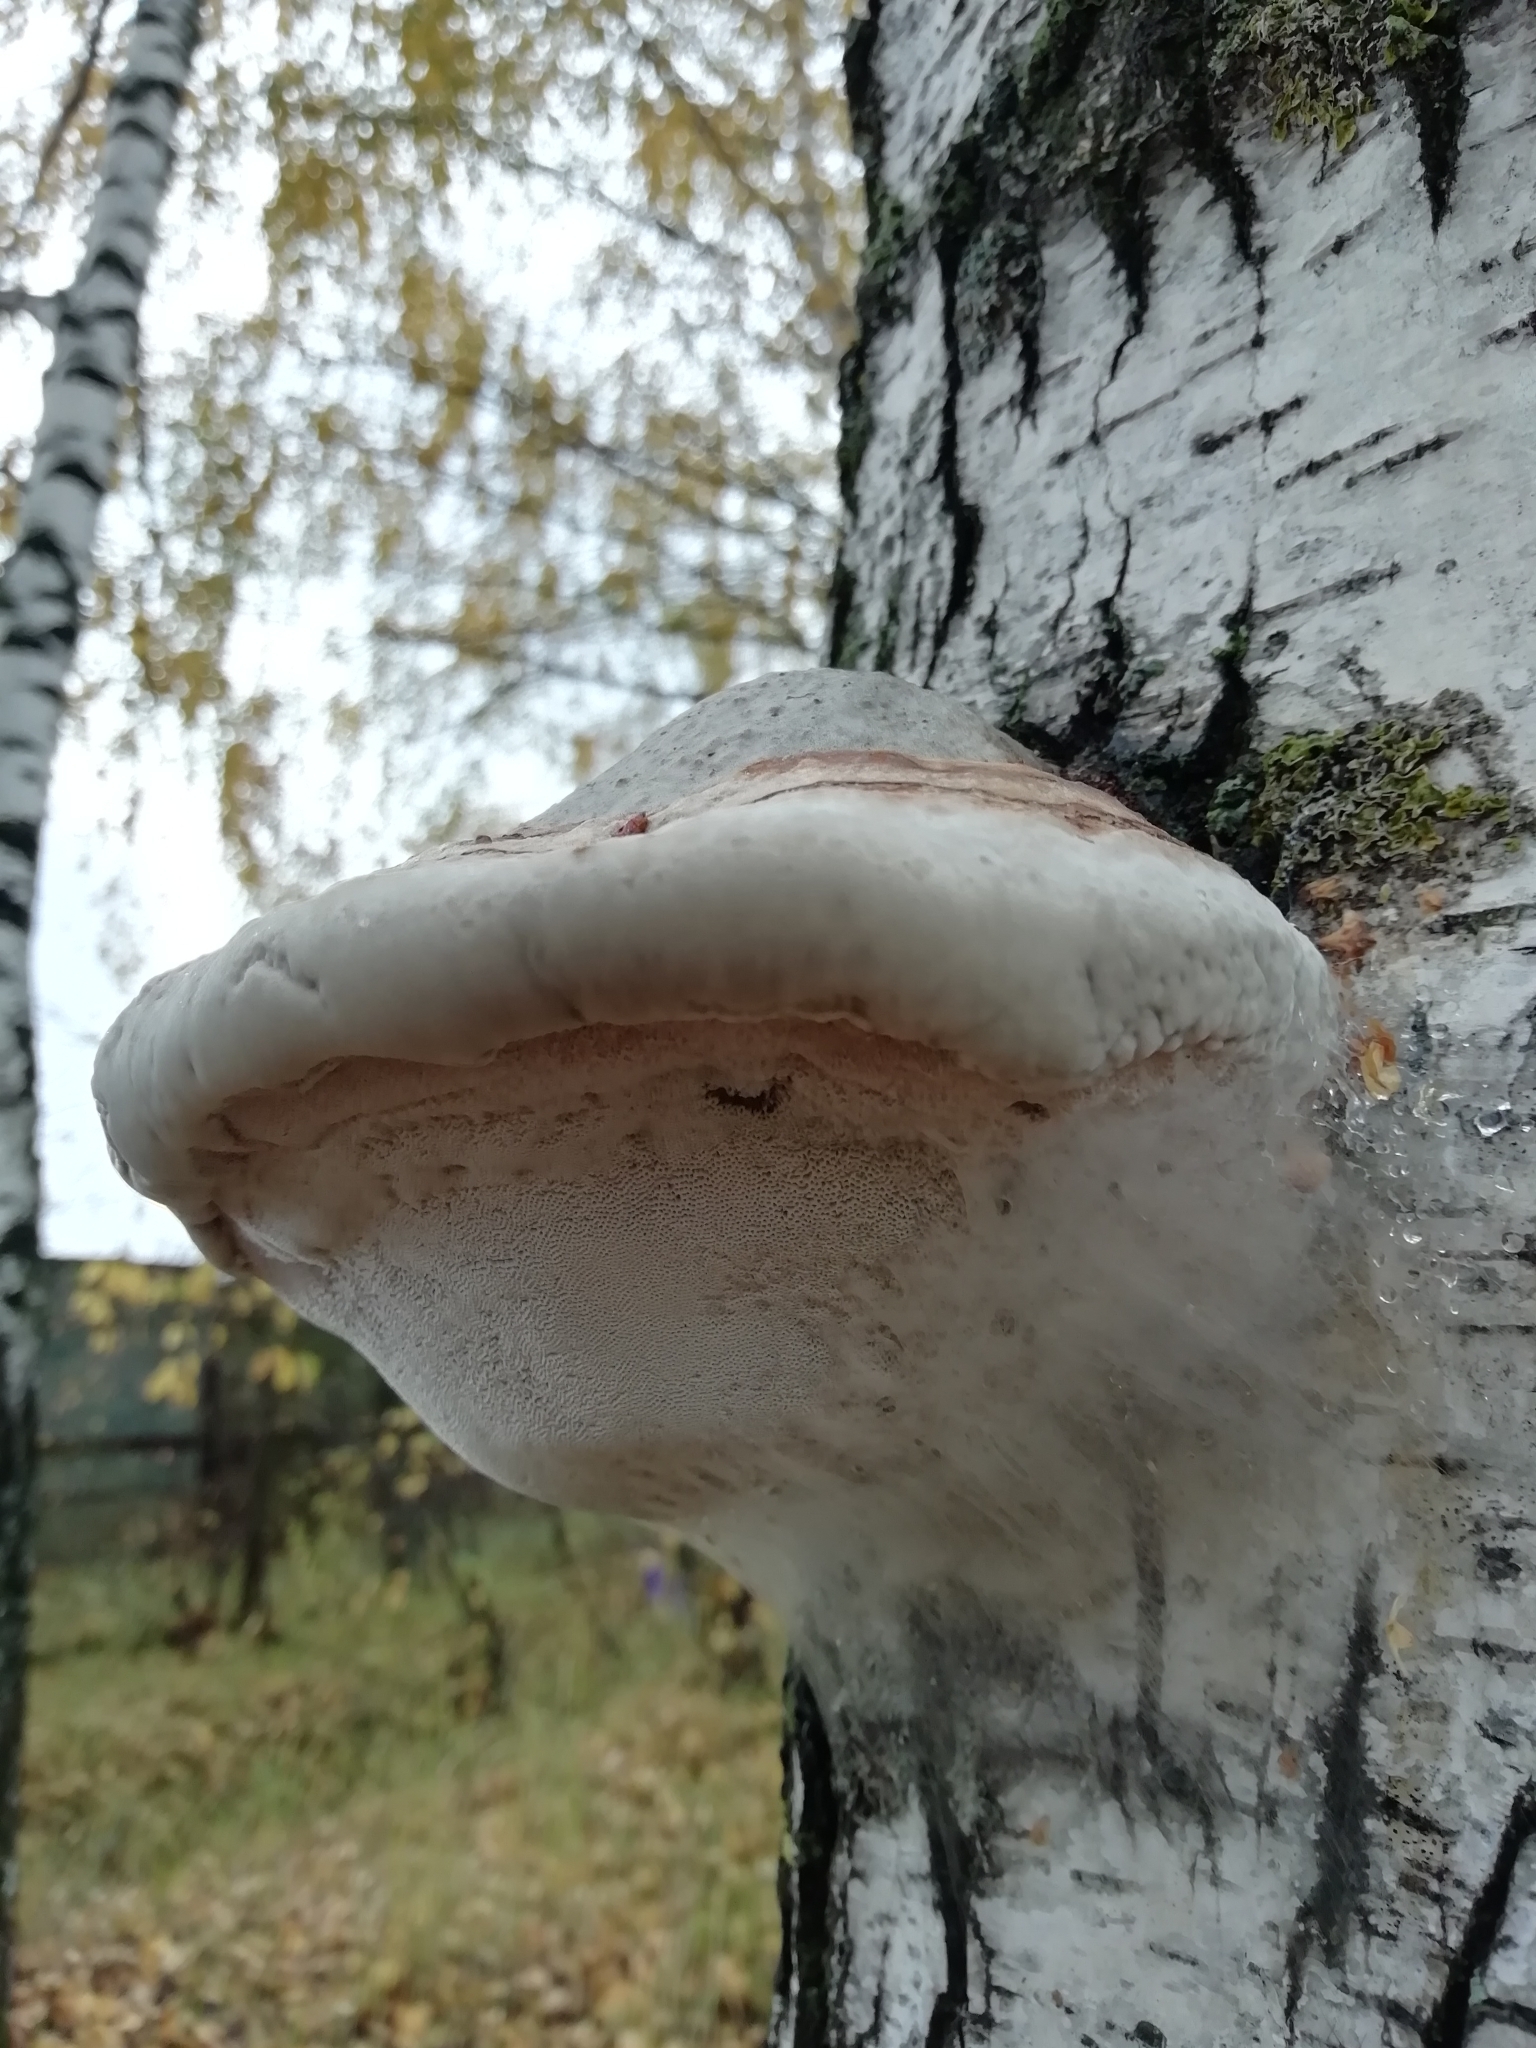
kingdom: Fungi
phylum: Basidiomycota
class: Agaricomycetes
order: Polyporales
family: Fomitopsidaceae
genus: Fomitopsis
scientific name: Fomitopsis pinicola
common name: Red-belted bracket
